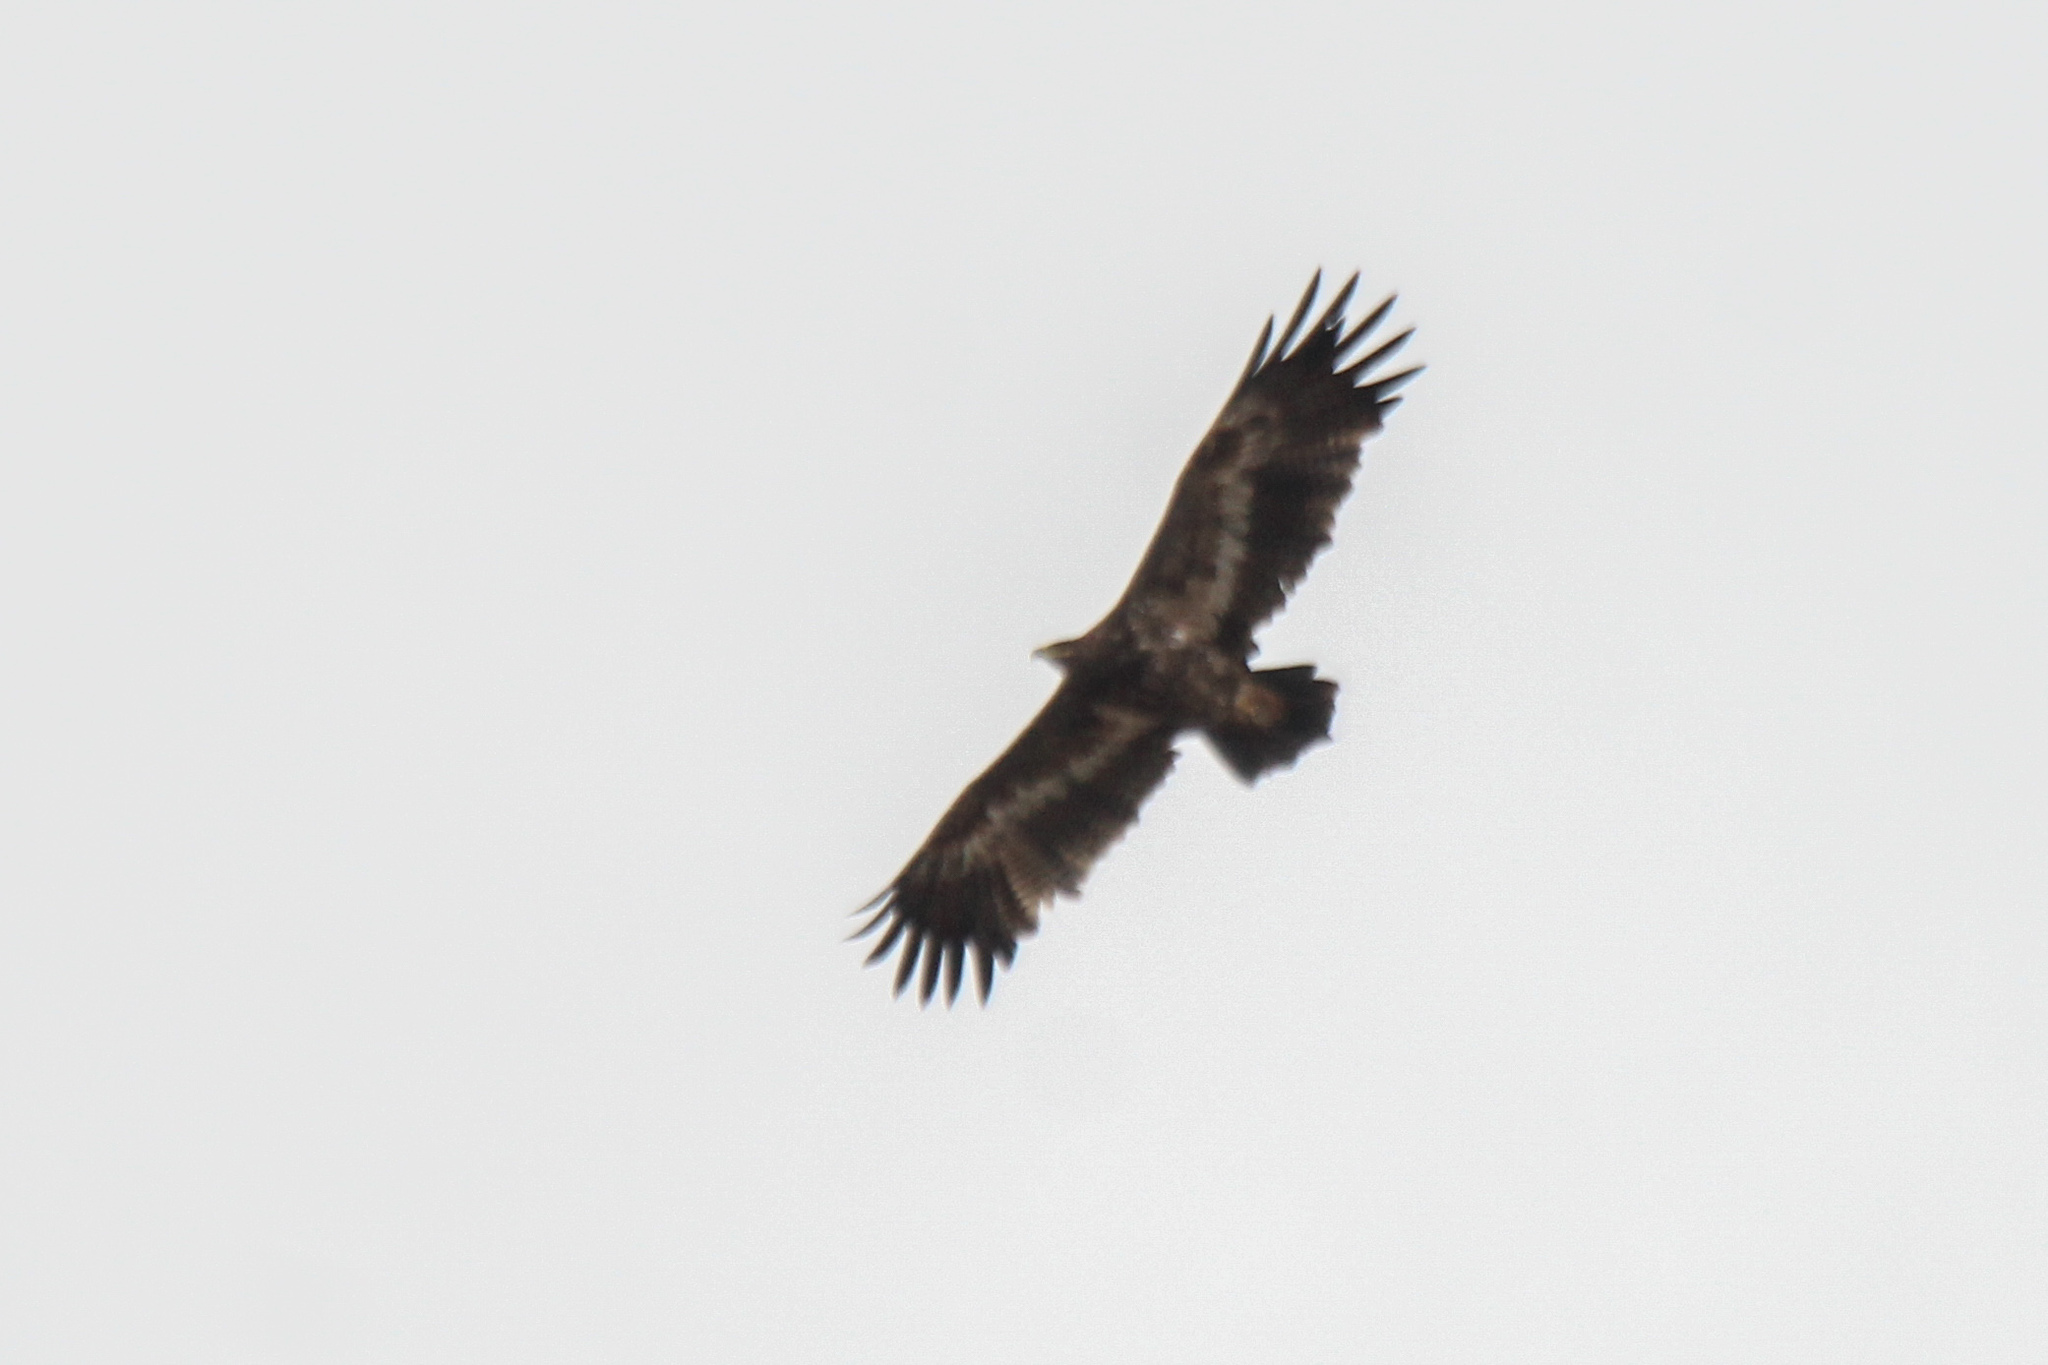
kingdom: Animalia
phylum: Chordata
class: Aves
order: Accipitriformes
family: Accipitridae
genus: Aquila
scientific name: Aquila nipalensis
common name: Steppe eagle
